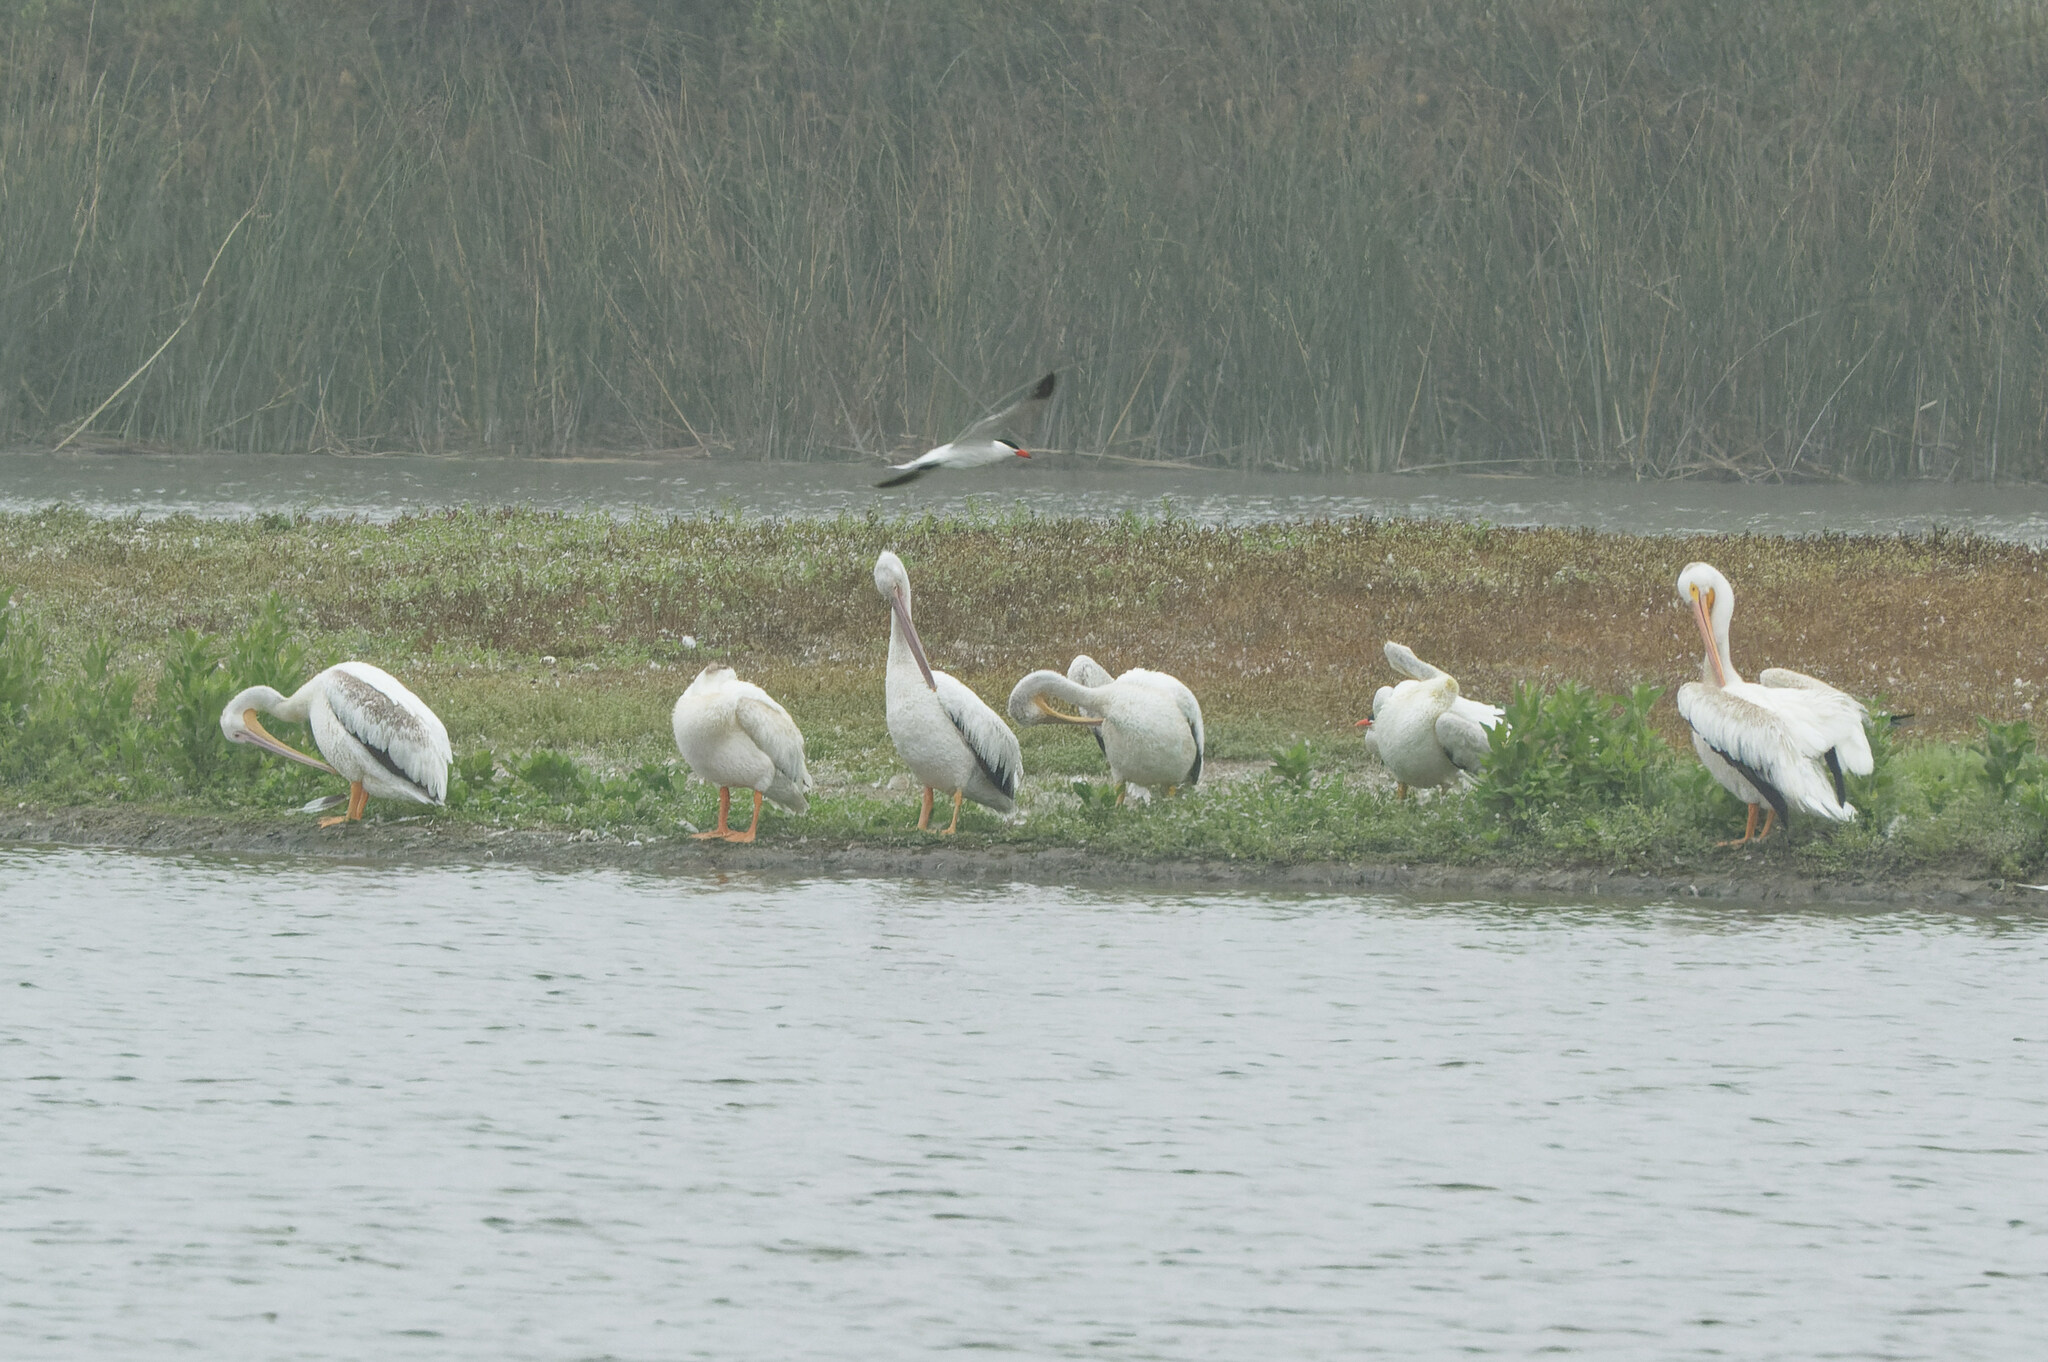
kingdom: Animalia
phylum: Chordata
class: Aves
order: Pelecaniformes
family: Pelecanidae
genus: Pelecanus
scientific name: Pelecanus erythrorhynchos
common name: American white pelican
